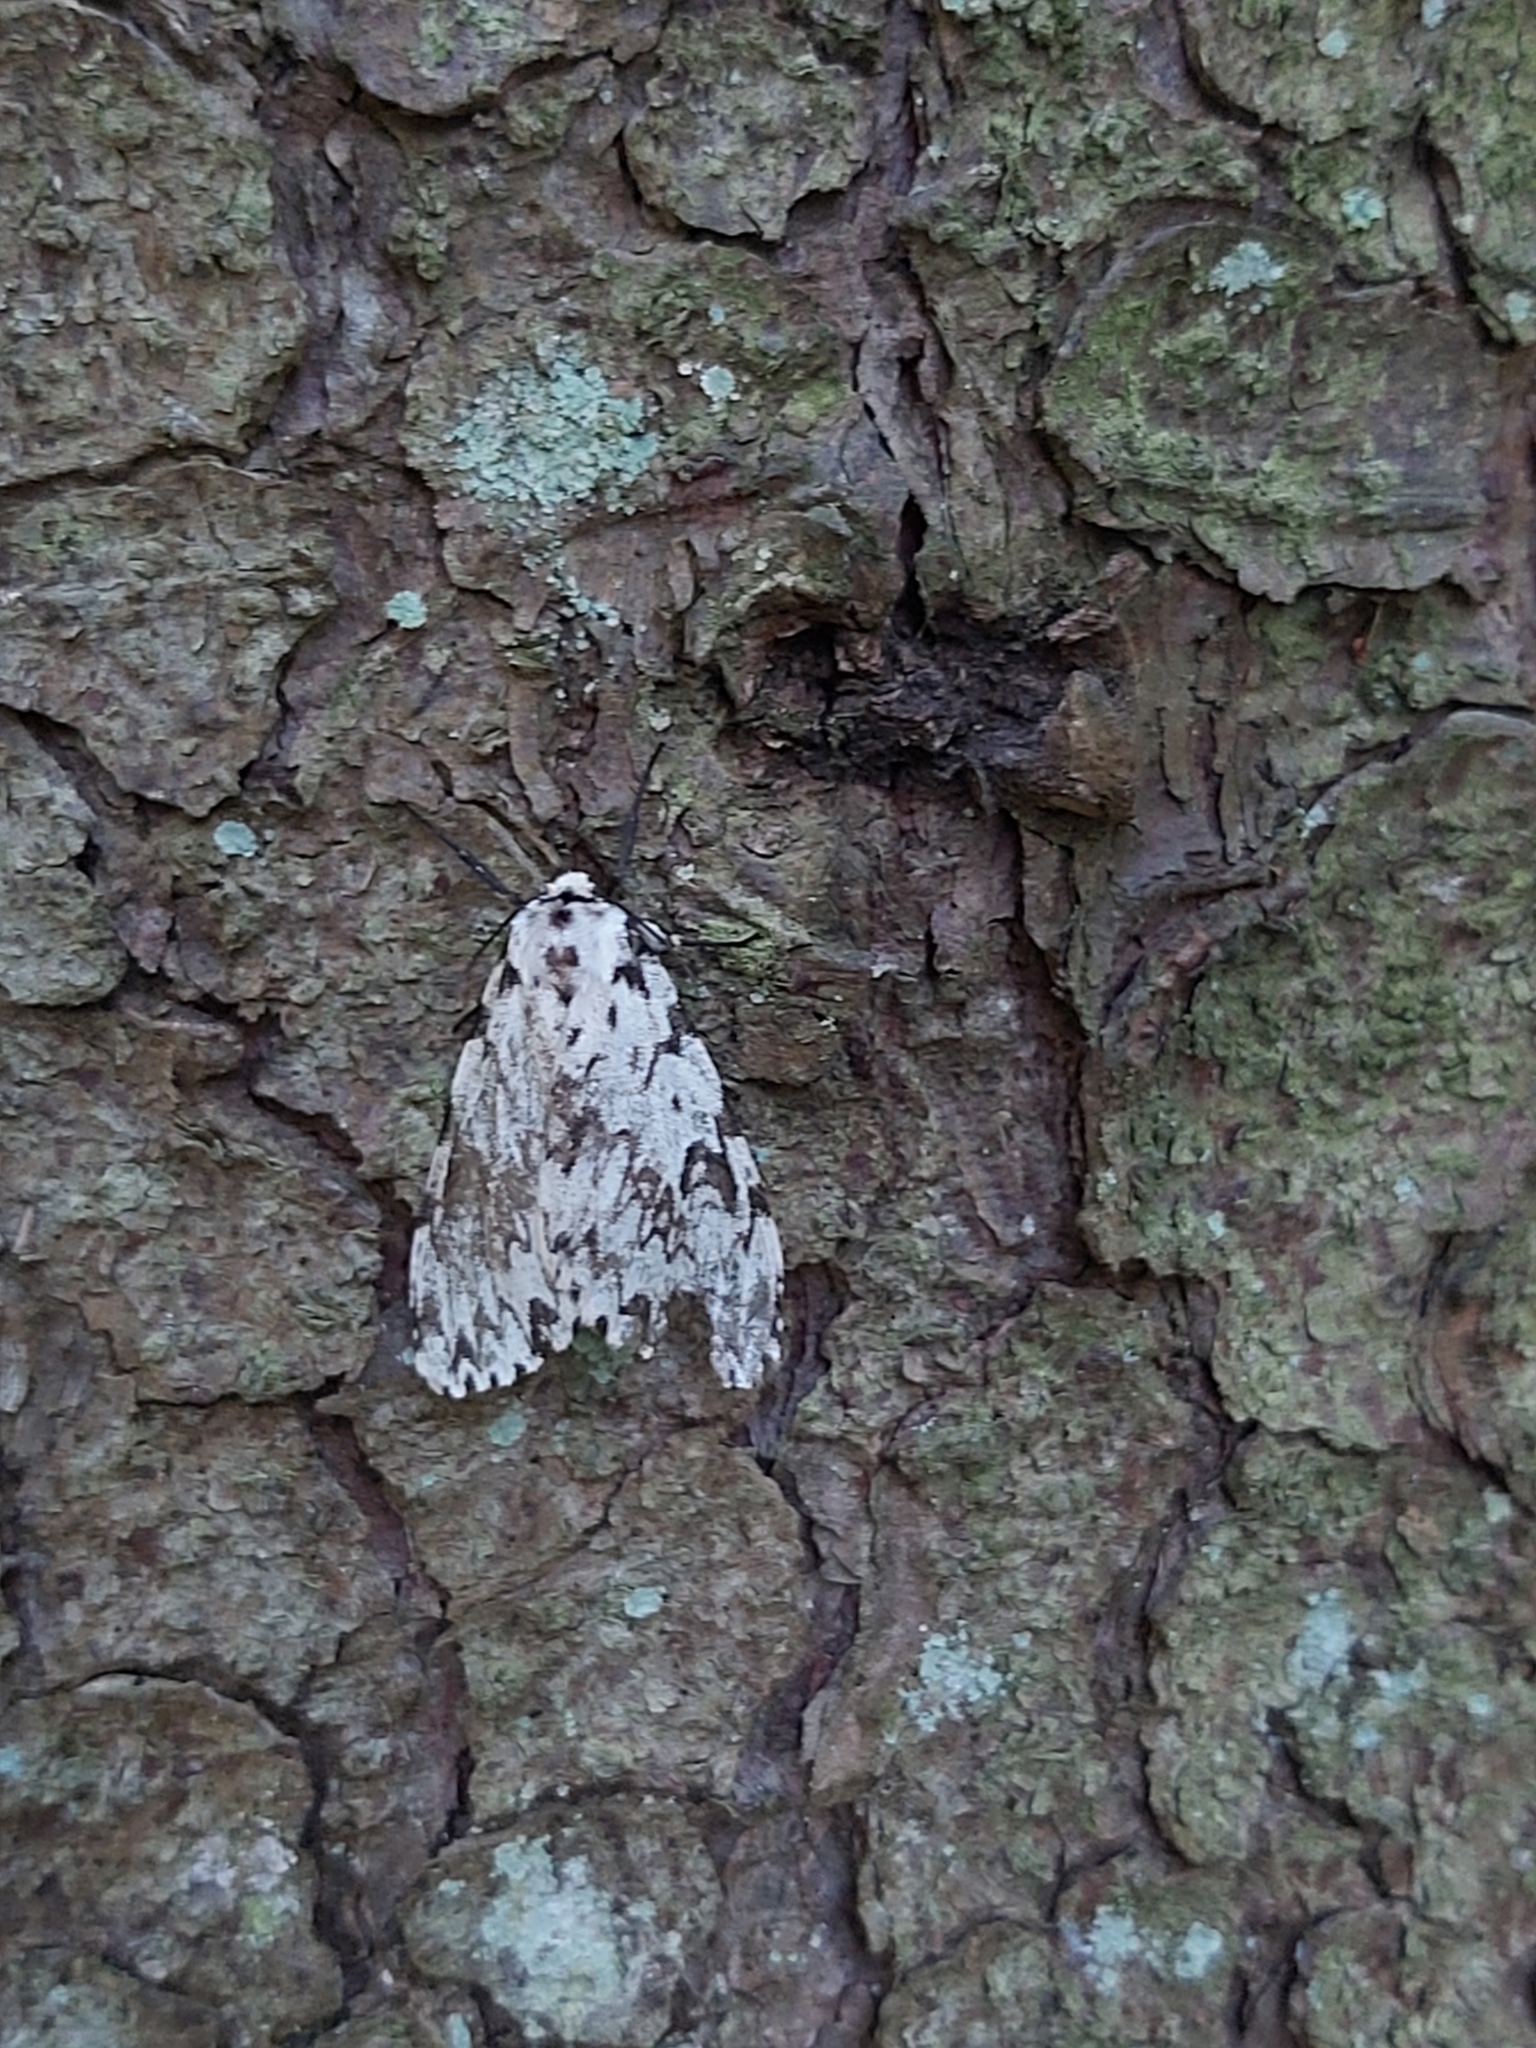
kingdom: Animalia
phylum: Arthropoda
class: Insecta
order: Lepidoptera
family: Erebidae
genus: Lymantria
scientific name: Lymantria monacha
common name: Black arches
